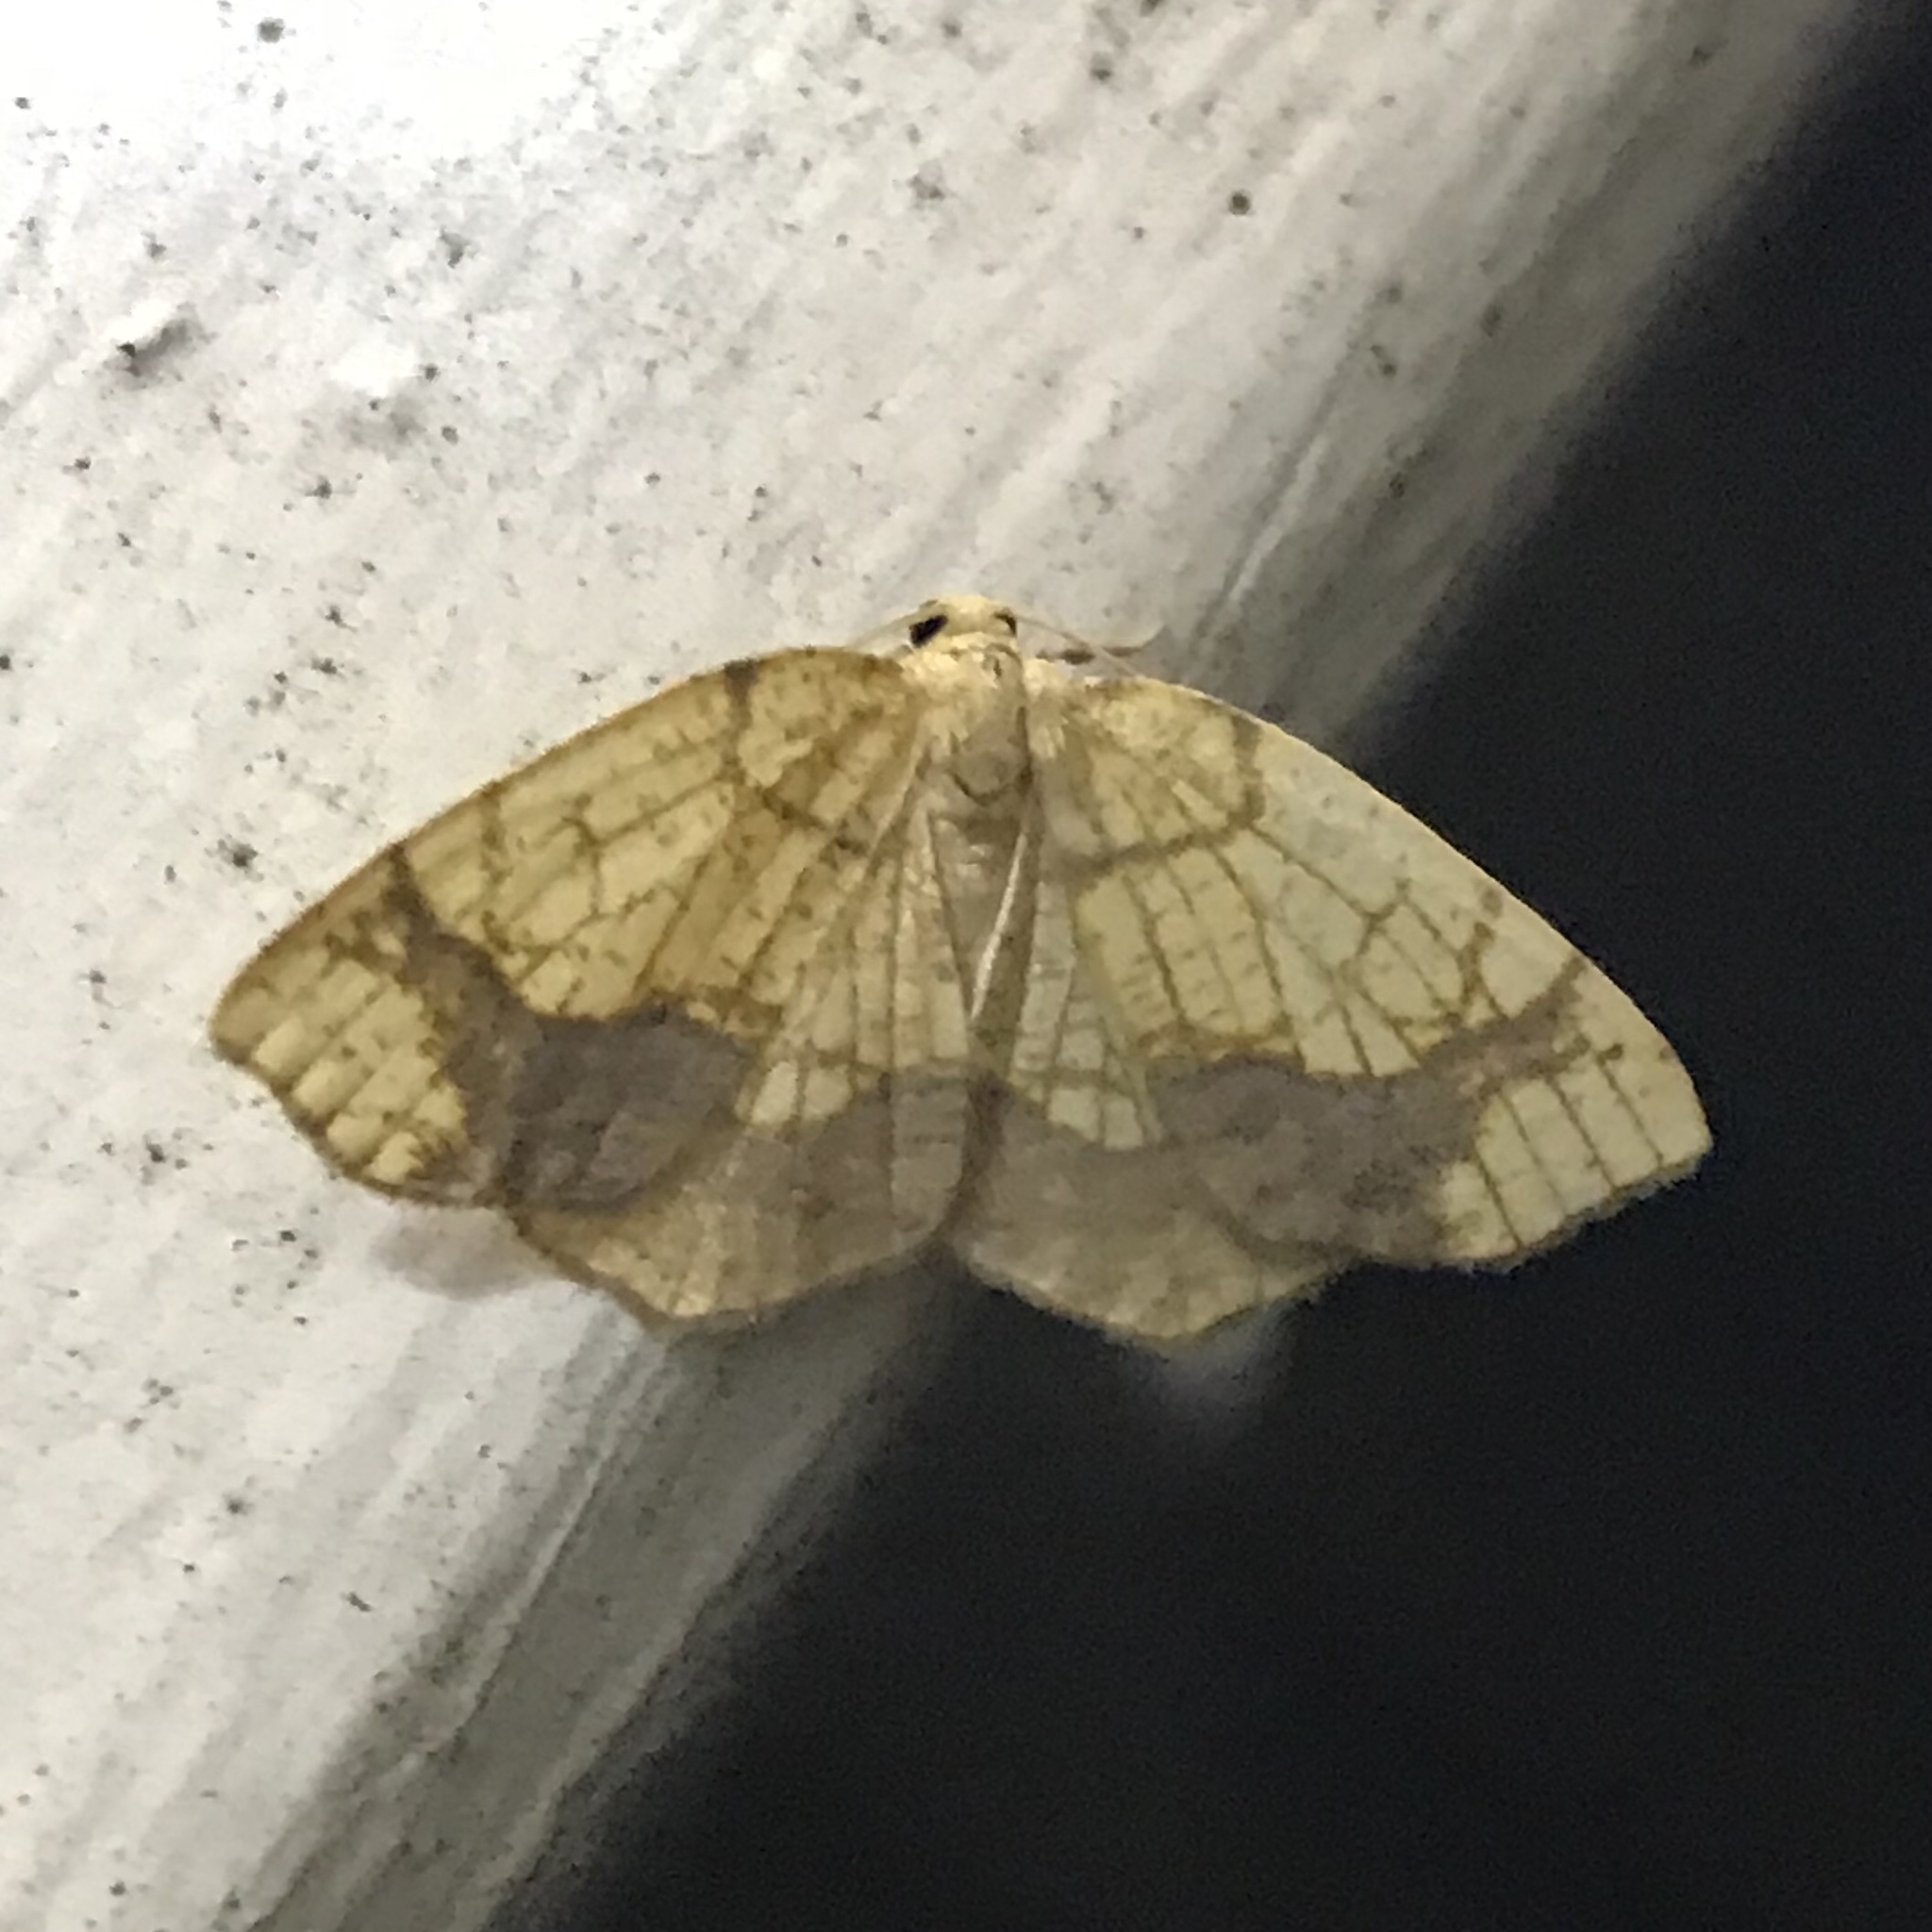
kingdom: Animalia
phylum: Arthropoda
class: Insecta
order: Lepidoptera
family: Geometridae
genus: Nematocampa
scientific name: Nematocampa resistaria
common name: Horned spanworm moth
